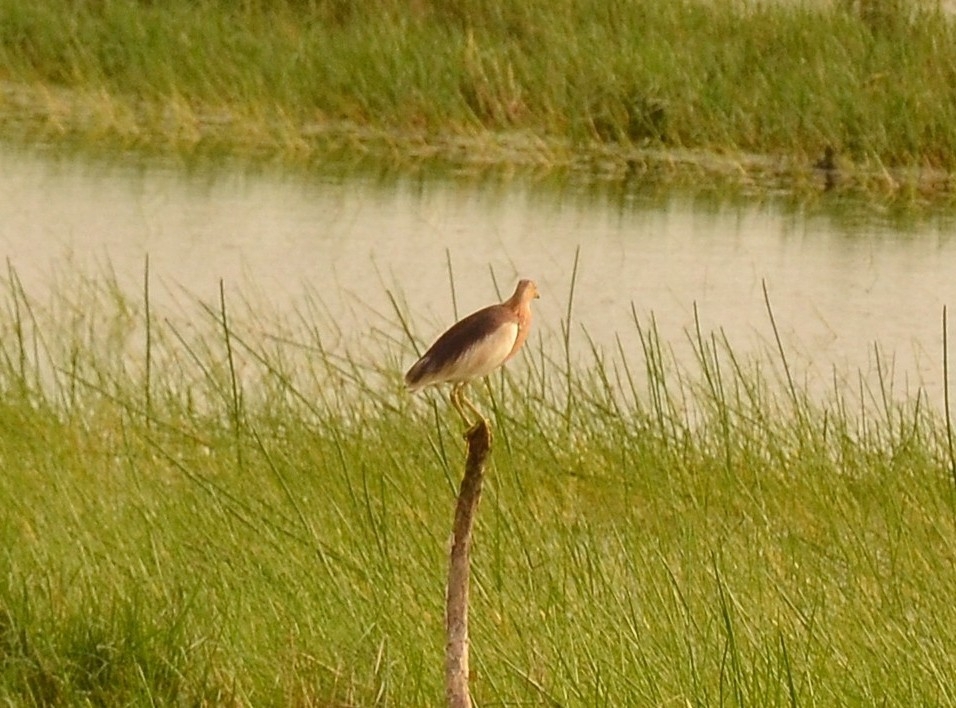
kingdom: Animalia
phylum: Chordata
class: Aves
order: Pelecaniformes
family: Ardeidae
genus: Ardeola
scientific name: Ardeola grayii
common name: Indian pond heron
